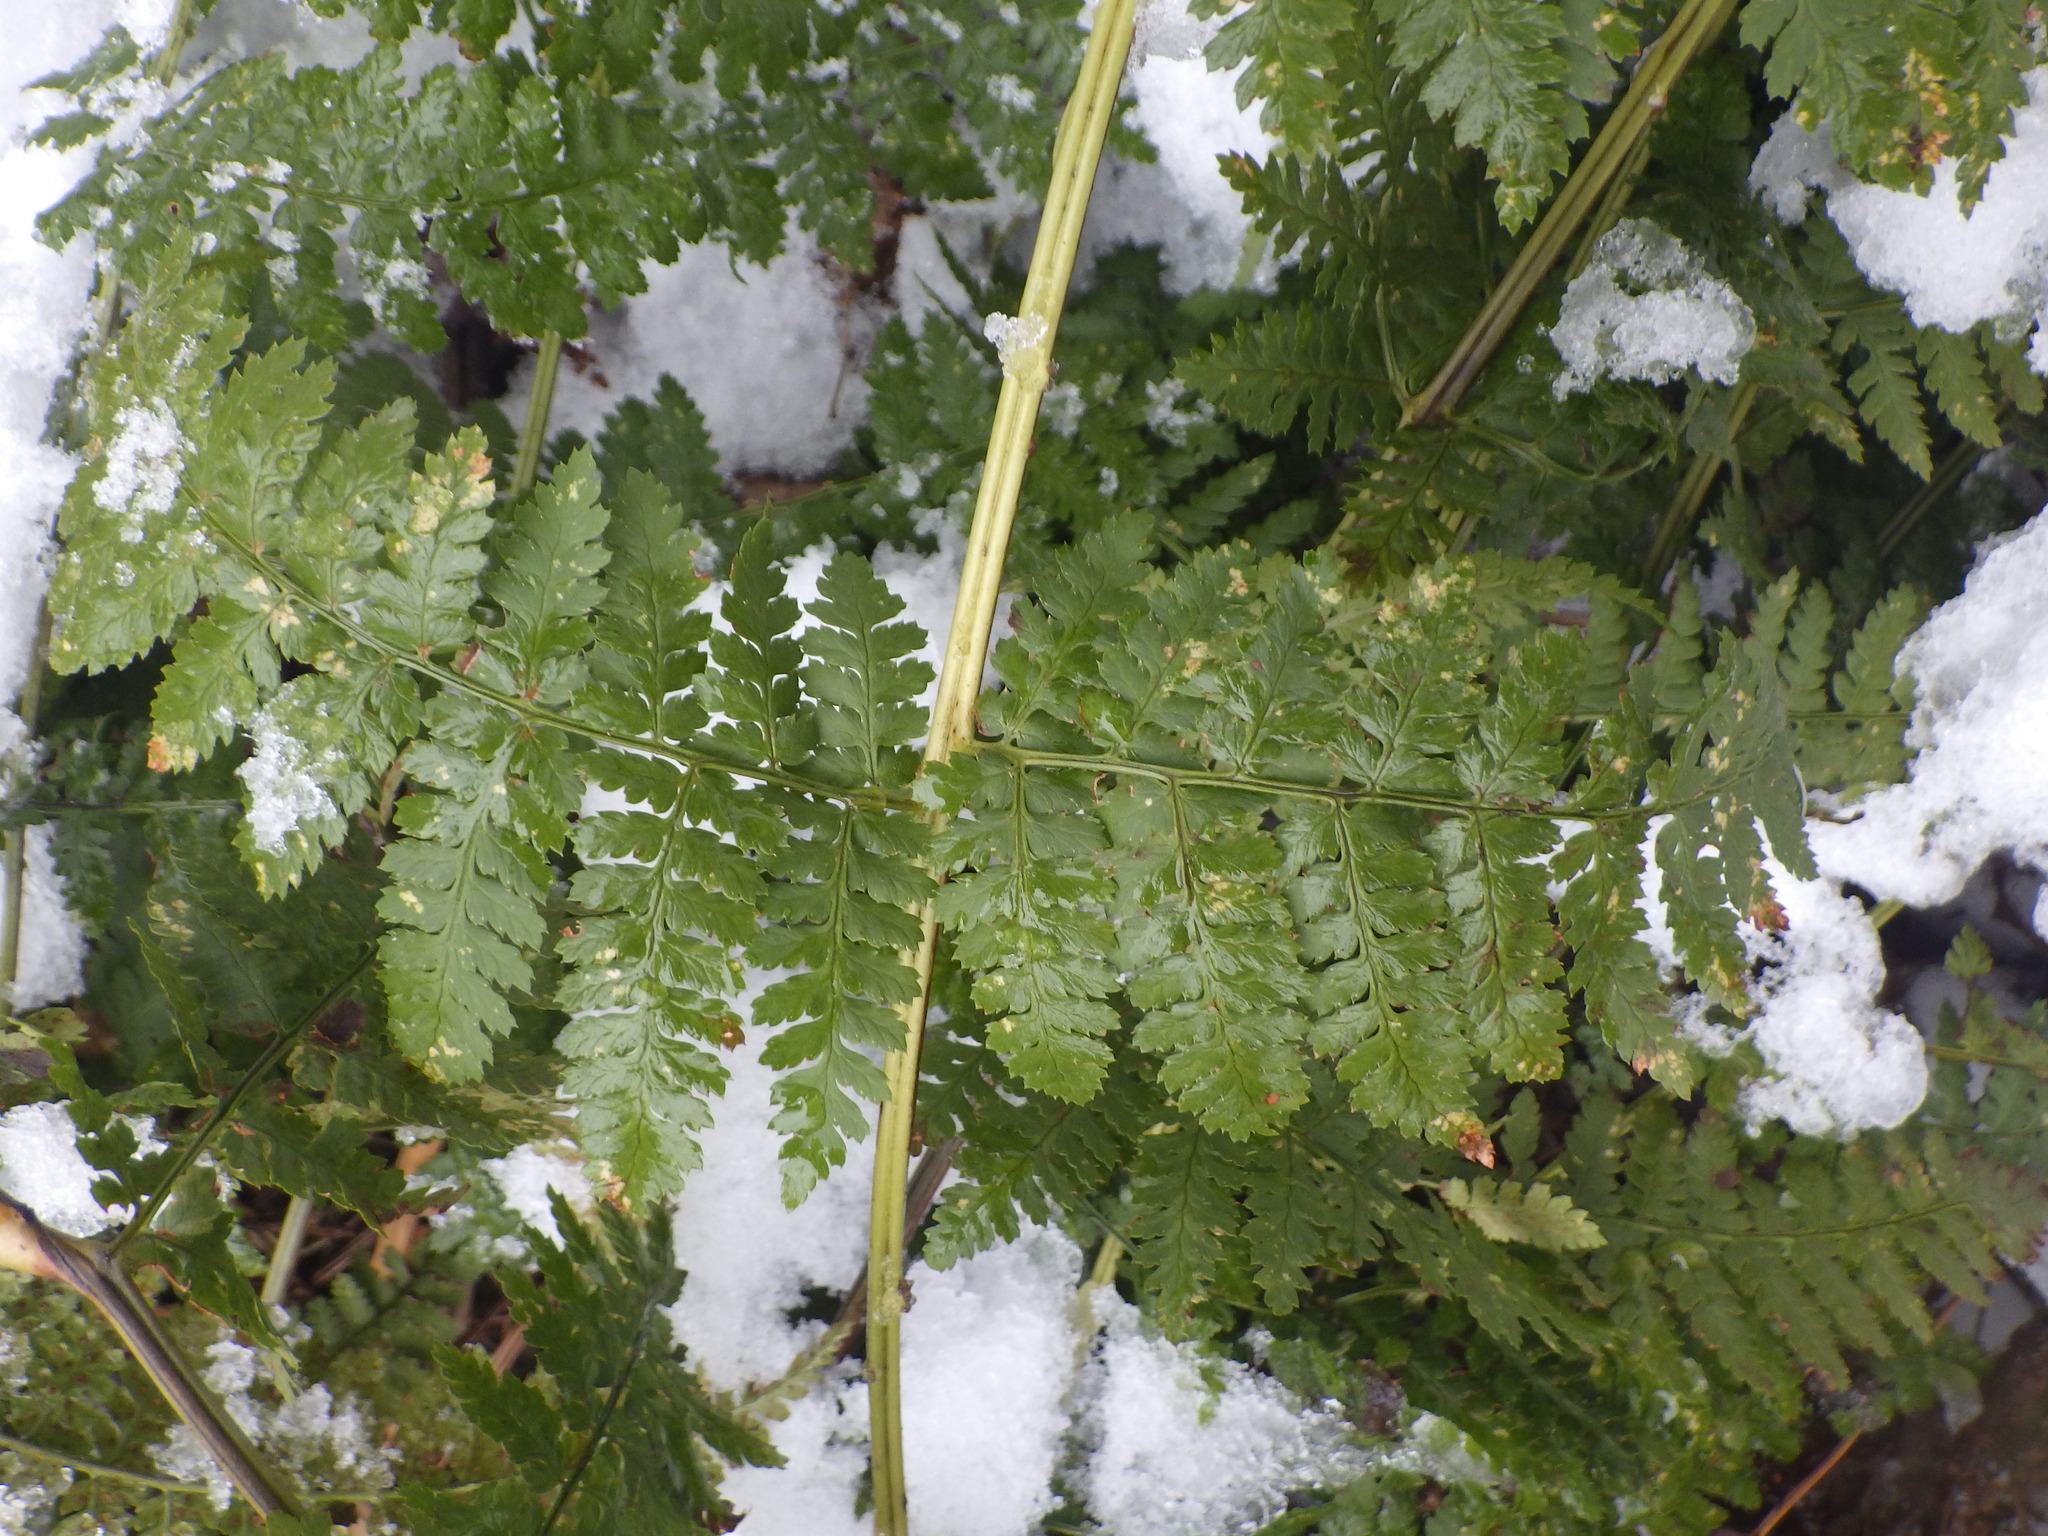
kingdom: Plantae
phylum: Tracheophyta
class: Polypodiopsida
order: Polypodiales
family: Dryopteridaceae
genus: Dryopteris
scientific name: Dryopteris intermedia
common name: Evergreen wood fern
